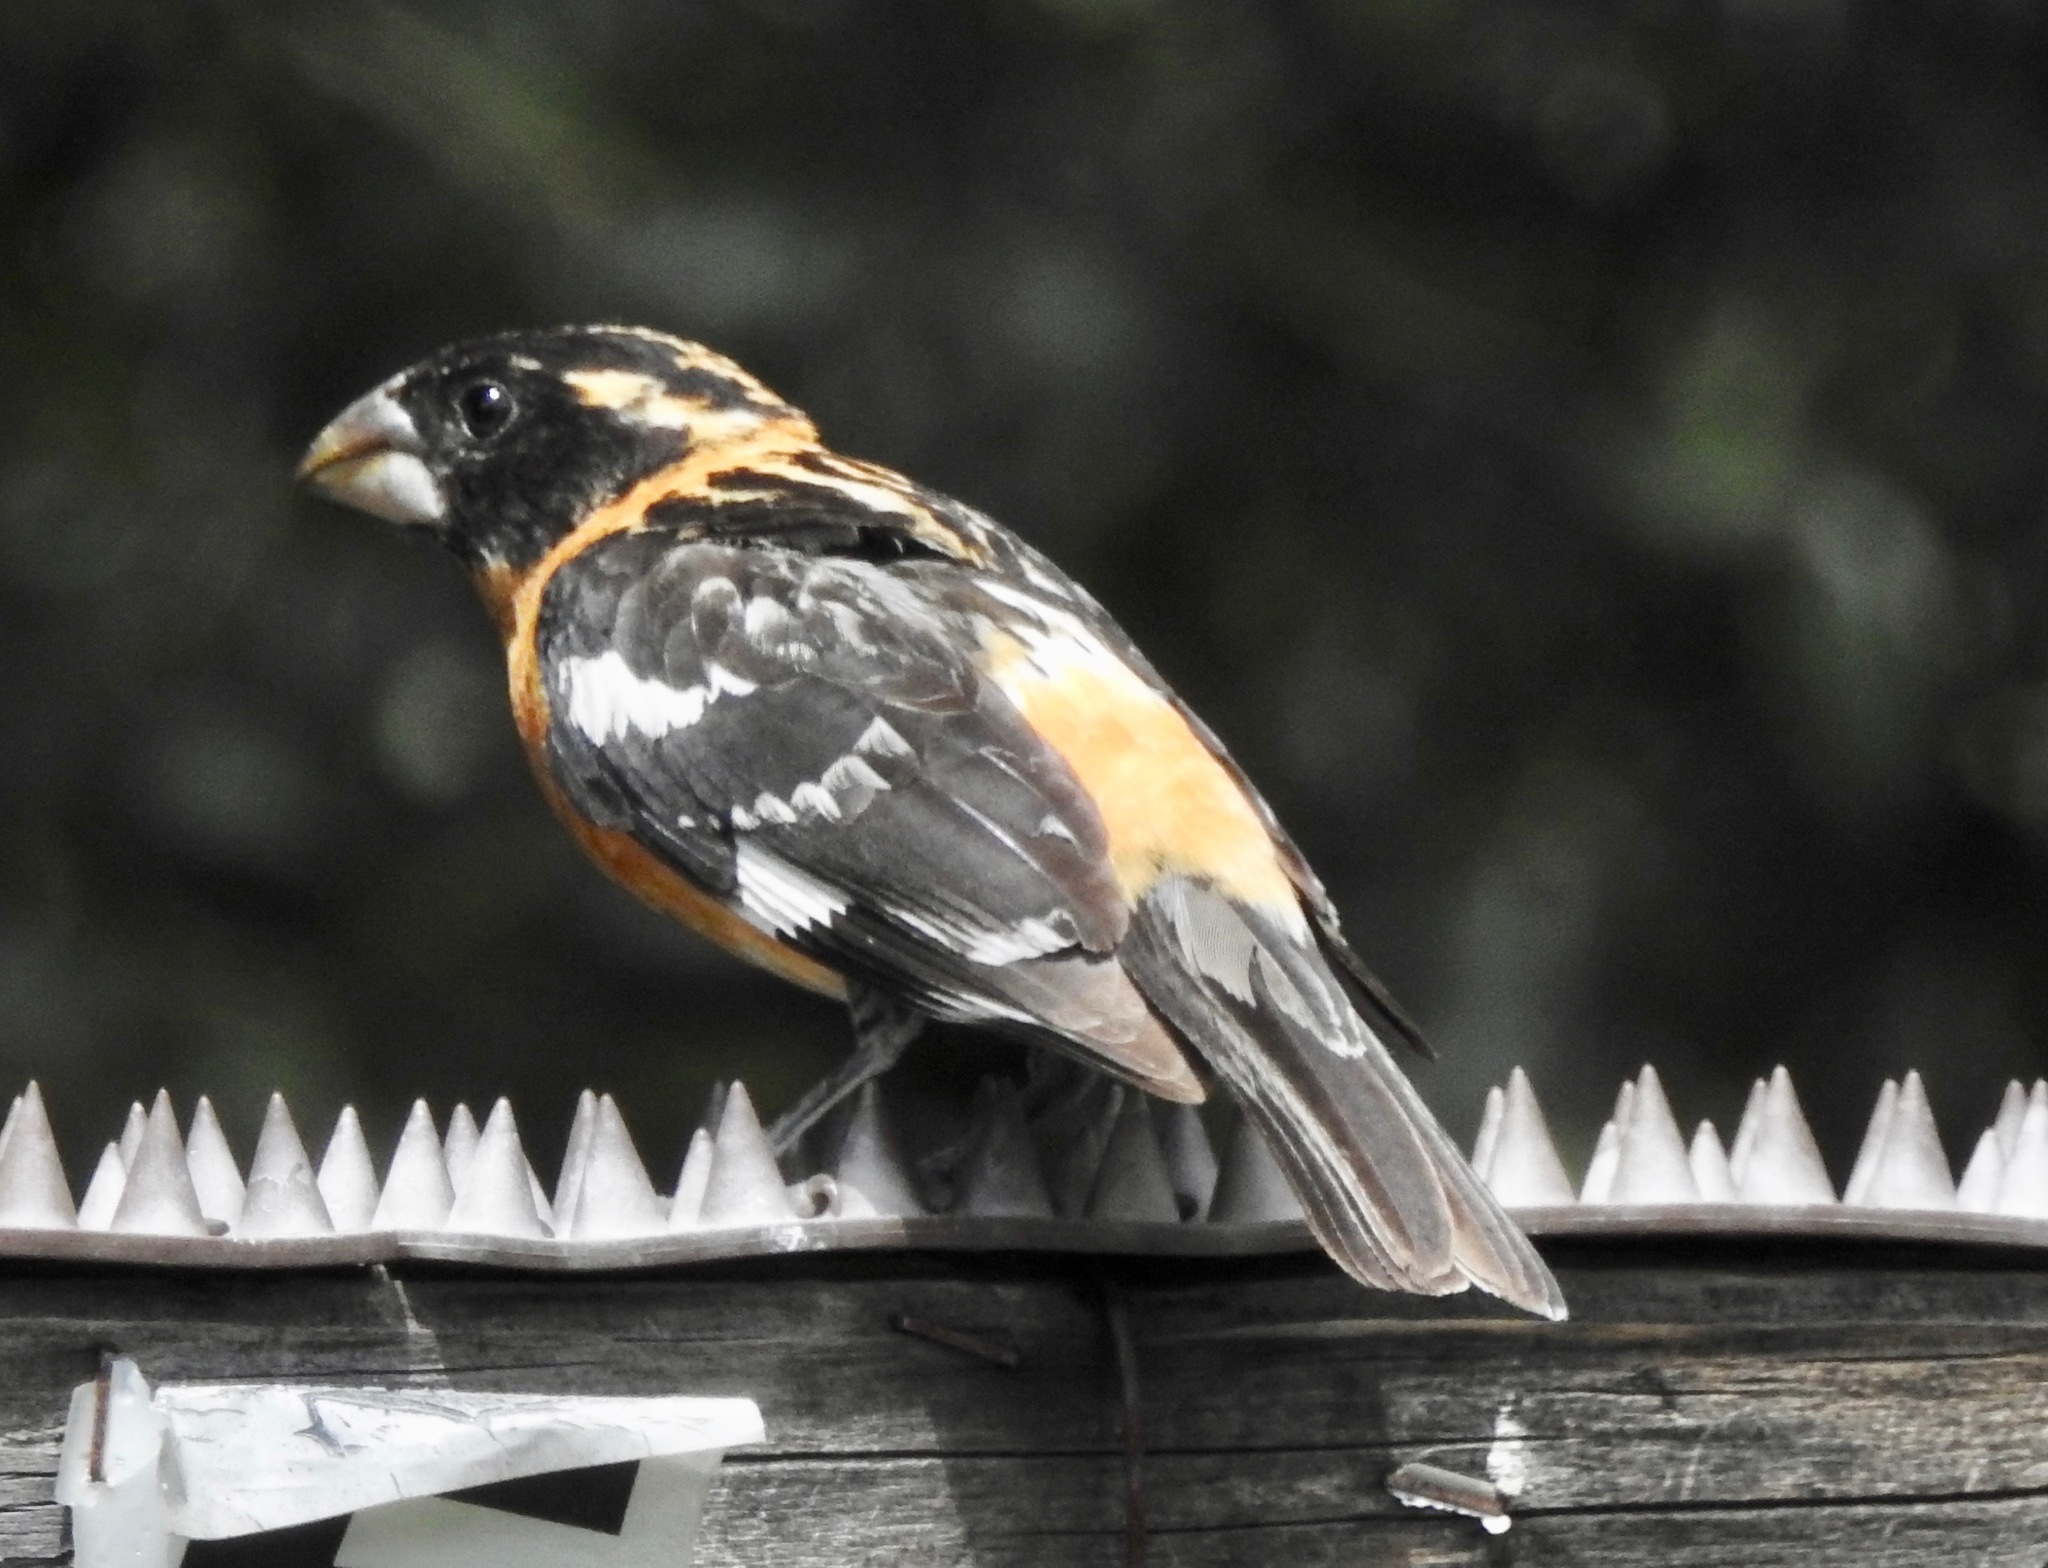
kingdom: Animalia
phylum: Chordata
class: Aves
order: Passeriformes
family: Cardinalidae
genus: Pheucticus
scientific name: Pheucticus melanocephalus
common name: Black-headed grosbeak
